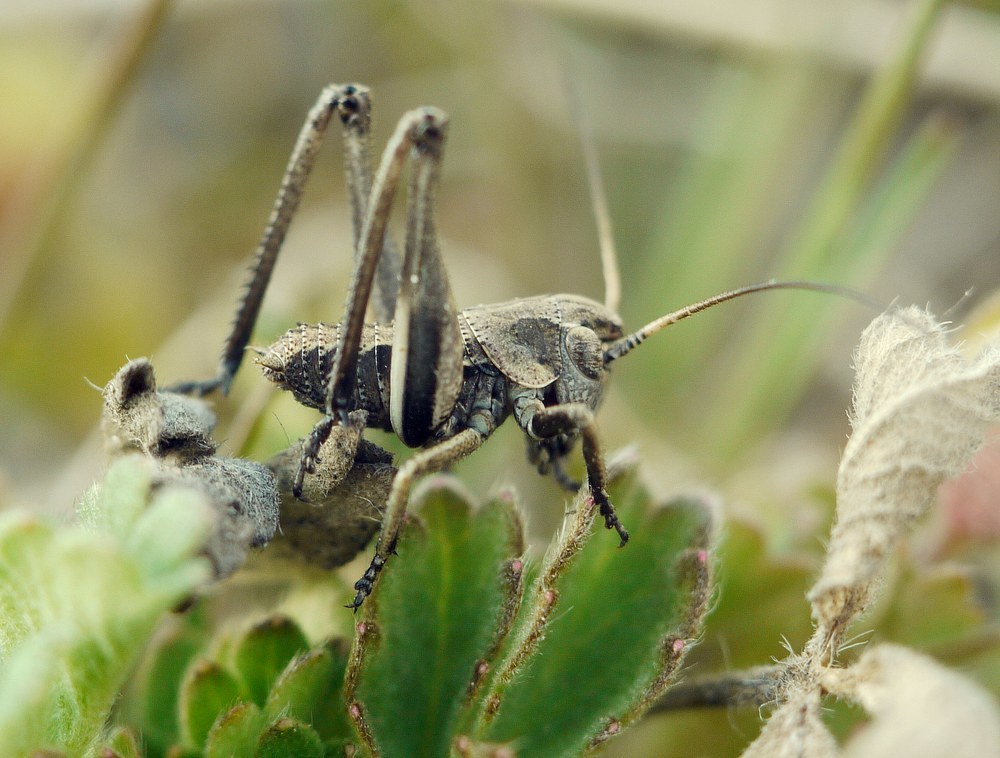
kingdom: Animalia
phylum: Arthropoda
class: Insecta
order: Orthoptera
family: Tettigoniidae
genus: Decticus
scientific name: Decticus verrucivorus
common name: Wart-biter
